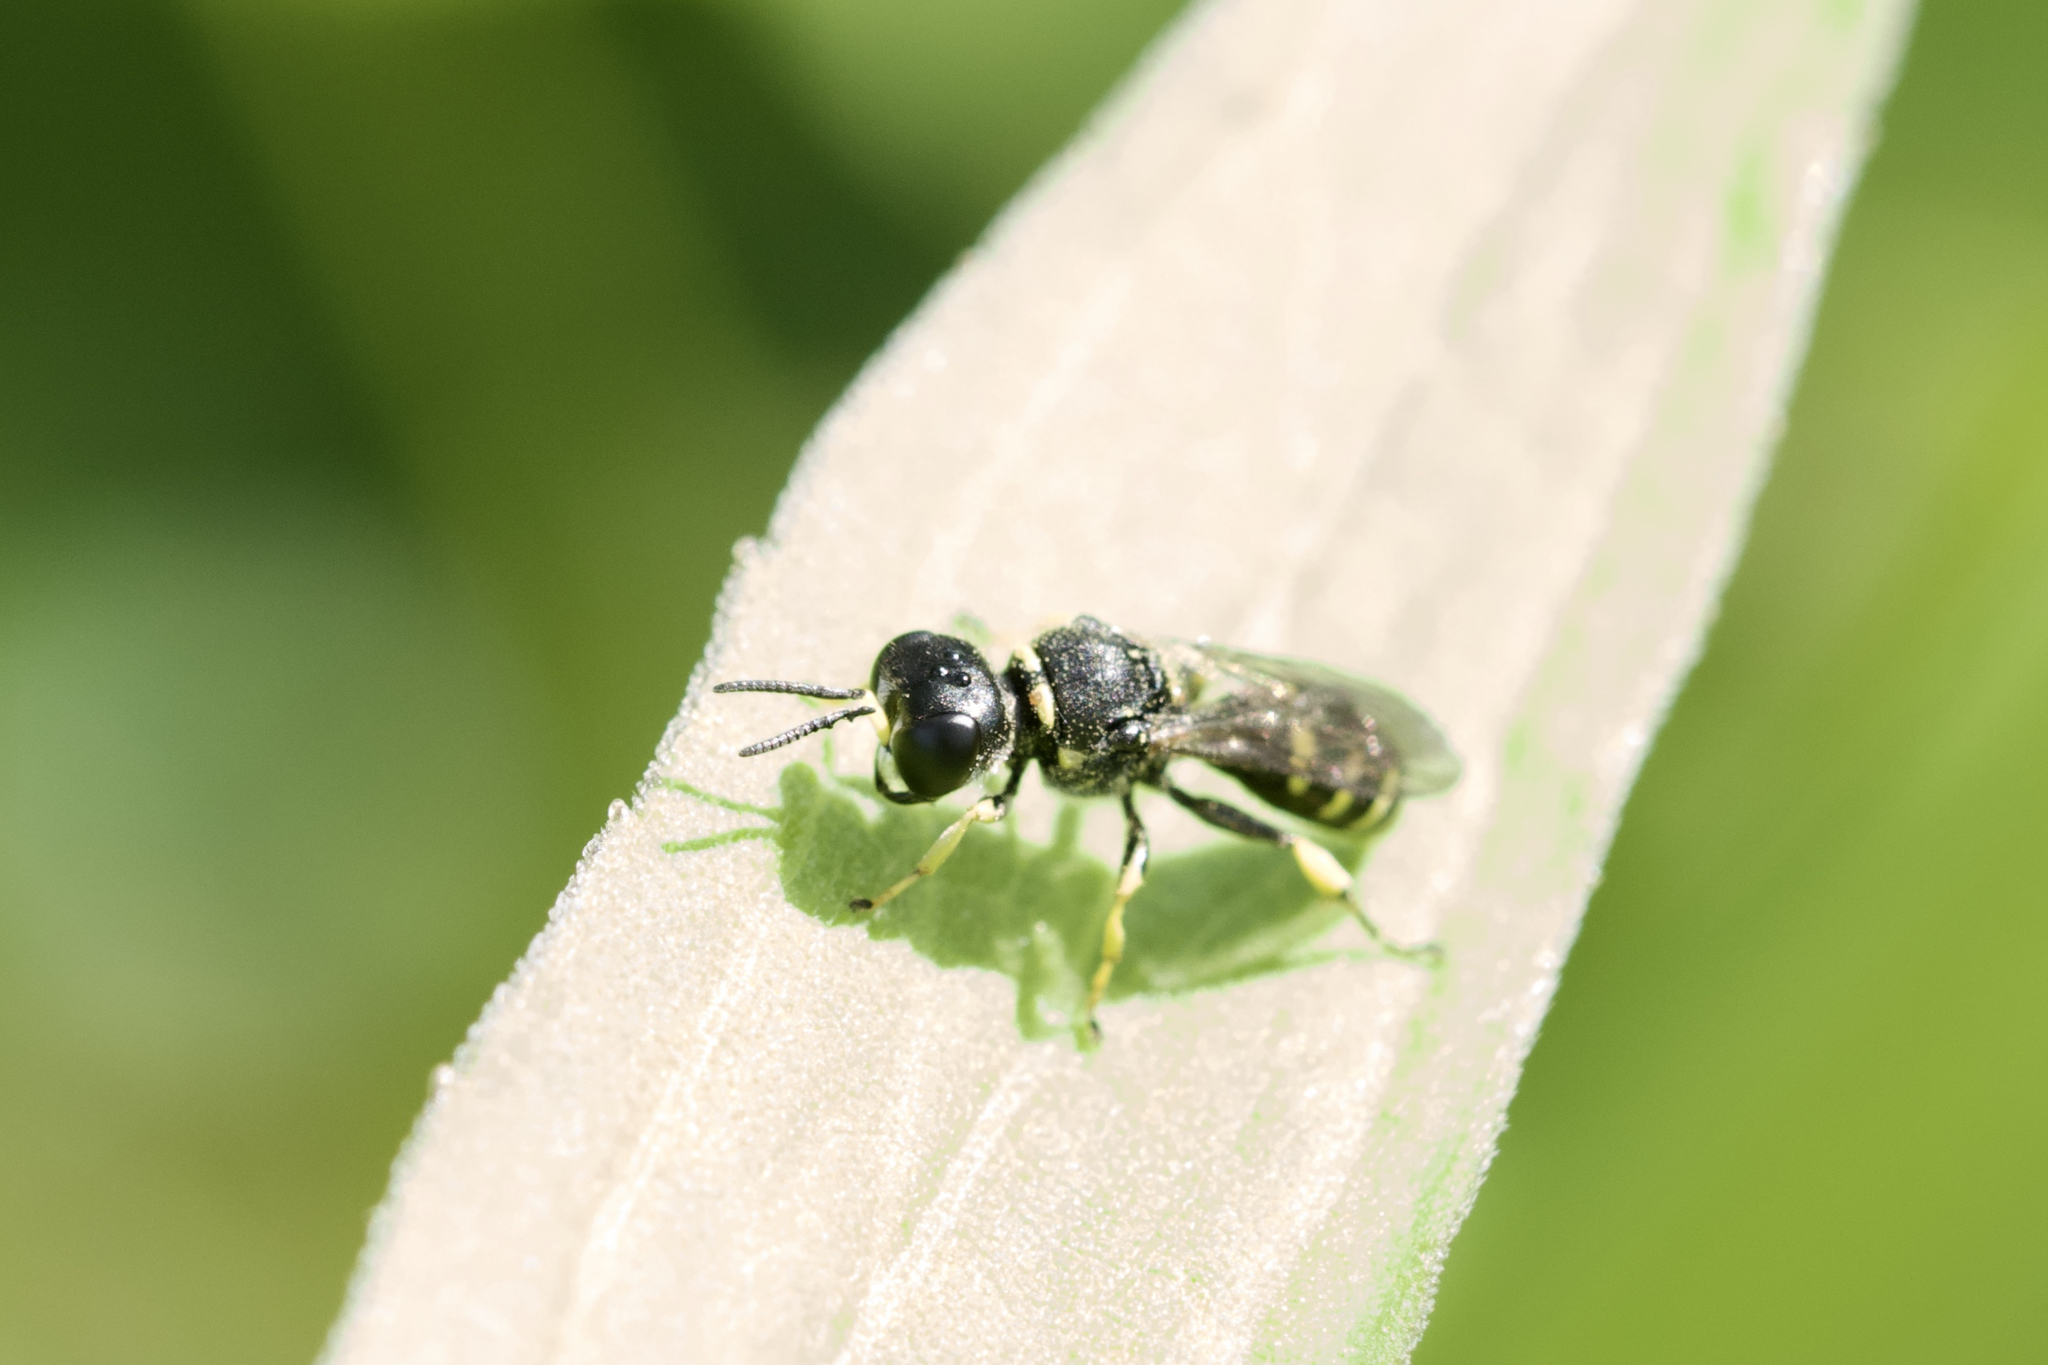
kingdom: Animalia
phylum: Arthropoda
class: Insecta
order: Hymenoptera
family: Crabronidae
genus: Ectemnius
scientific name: Ectemnius lapidarius
